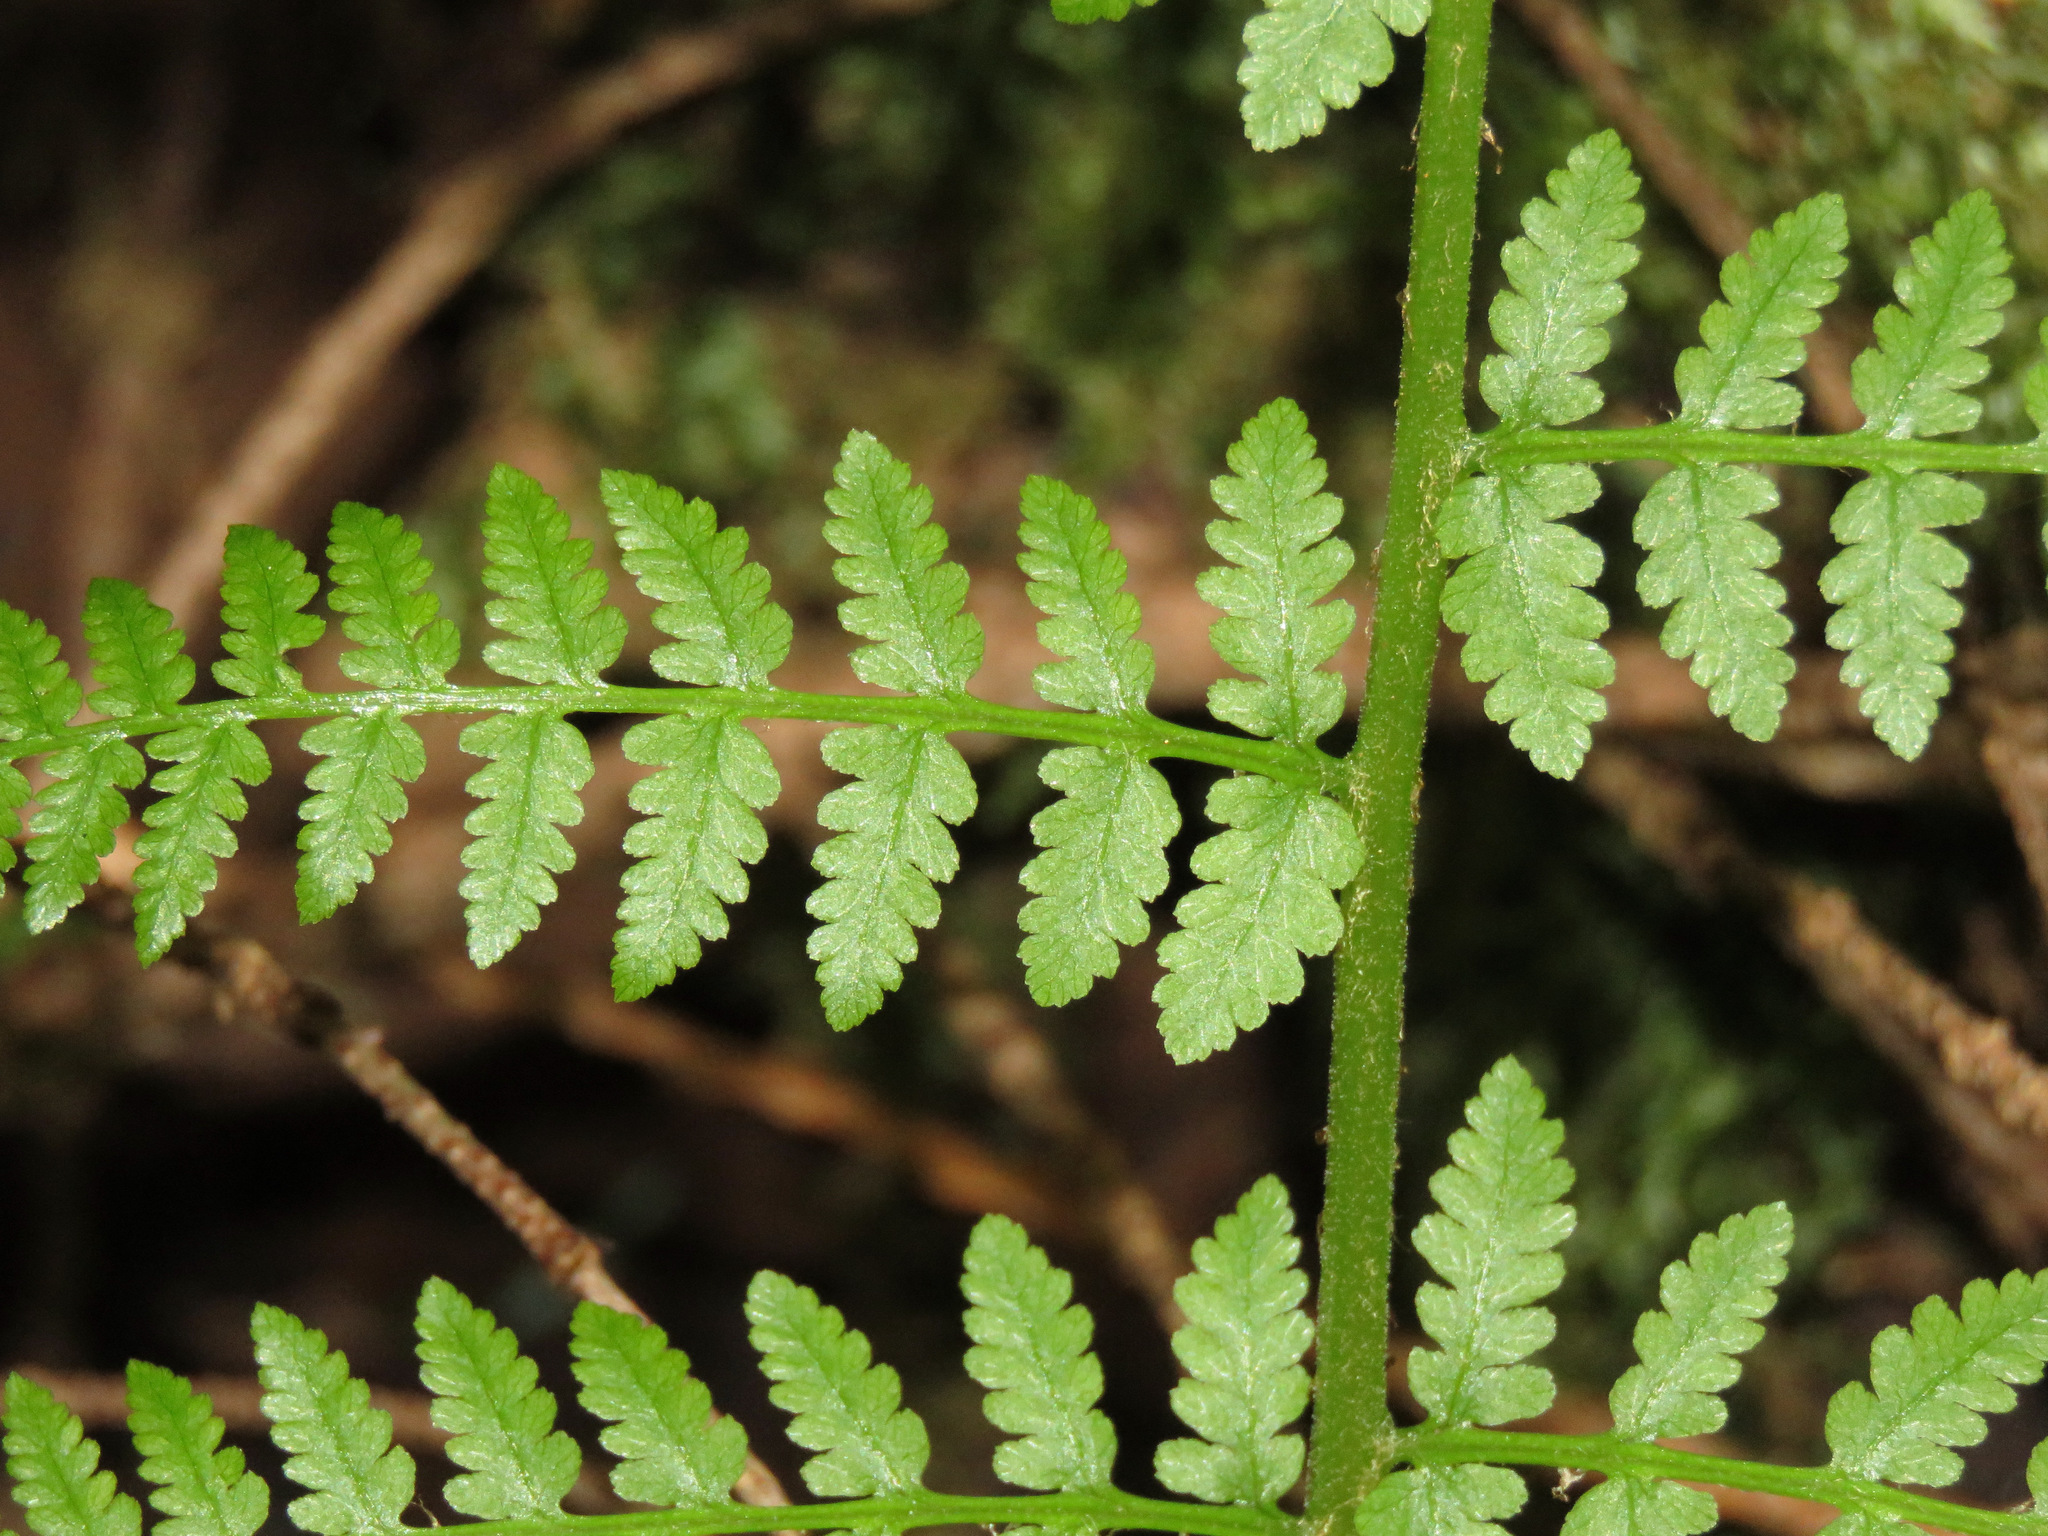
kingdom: Plantae
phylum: Tracheophyta
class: Polypodiopsida
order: Polypodiales
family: Athyriaceae
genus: Athyrium
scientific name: Athyrium cyclosorum
